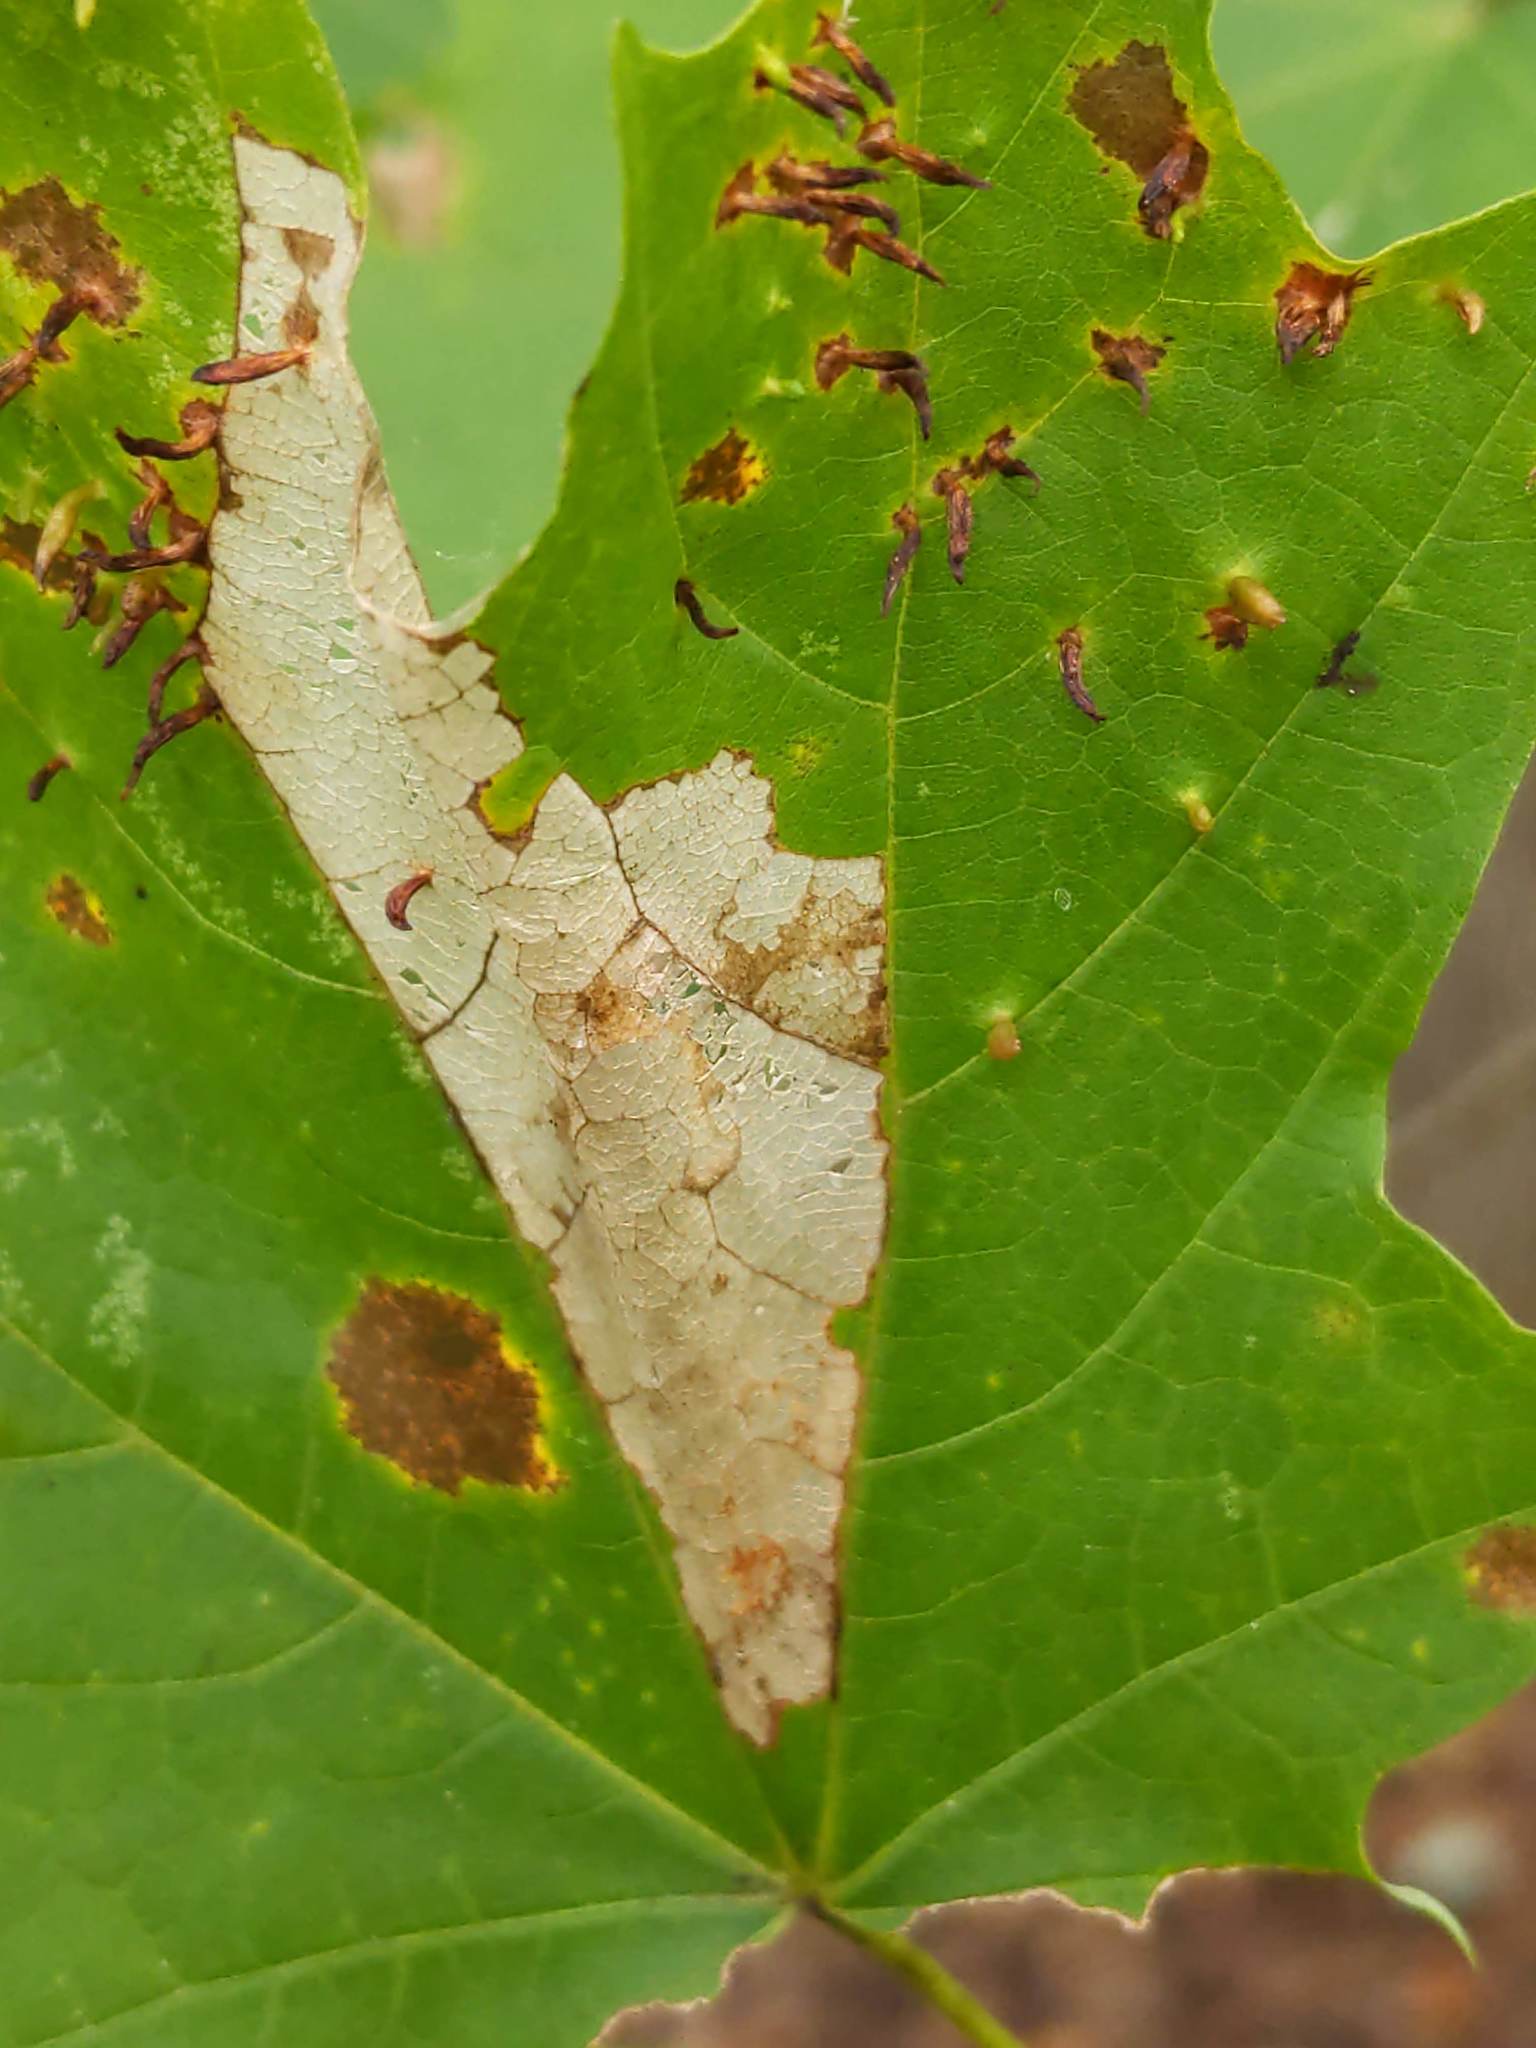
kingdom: Animalia
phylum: Arthropoda
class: Insecta
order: Lepidoptera
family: Tortricidae
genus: Catastega
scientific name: Catastega aceriella
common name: Maple trumpet skeletonizer moth
